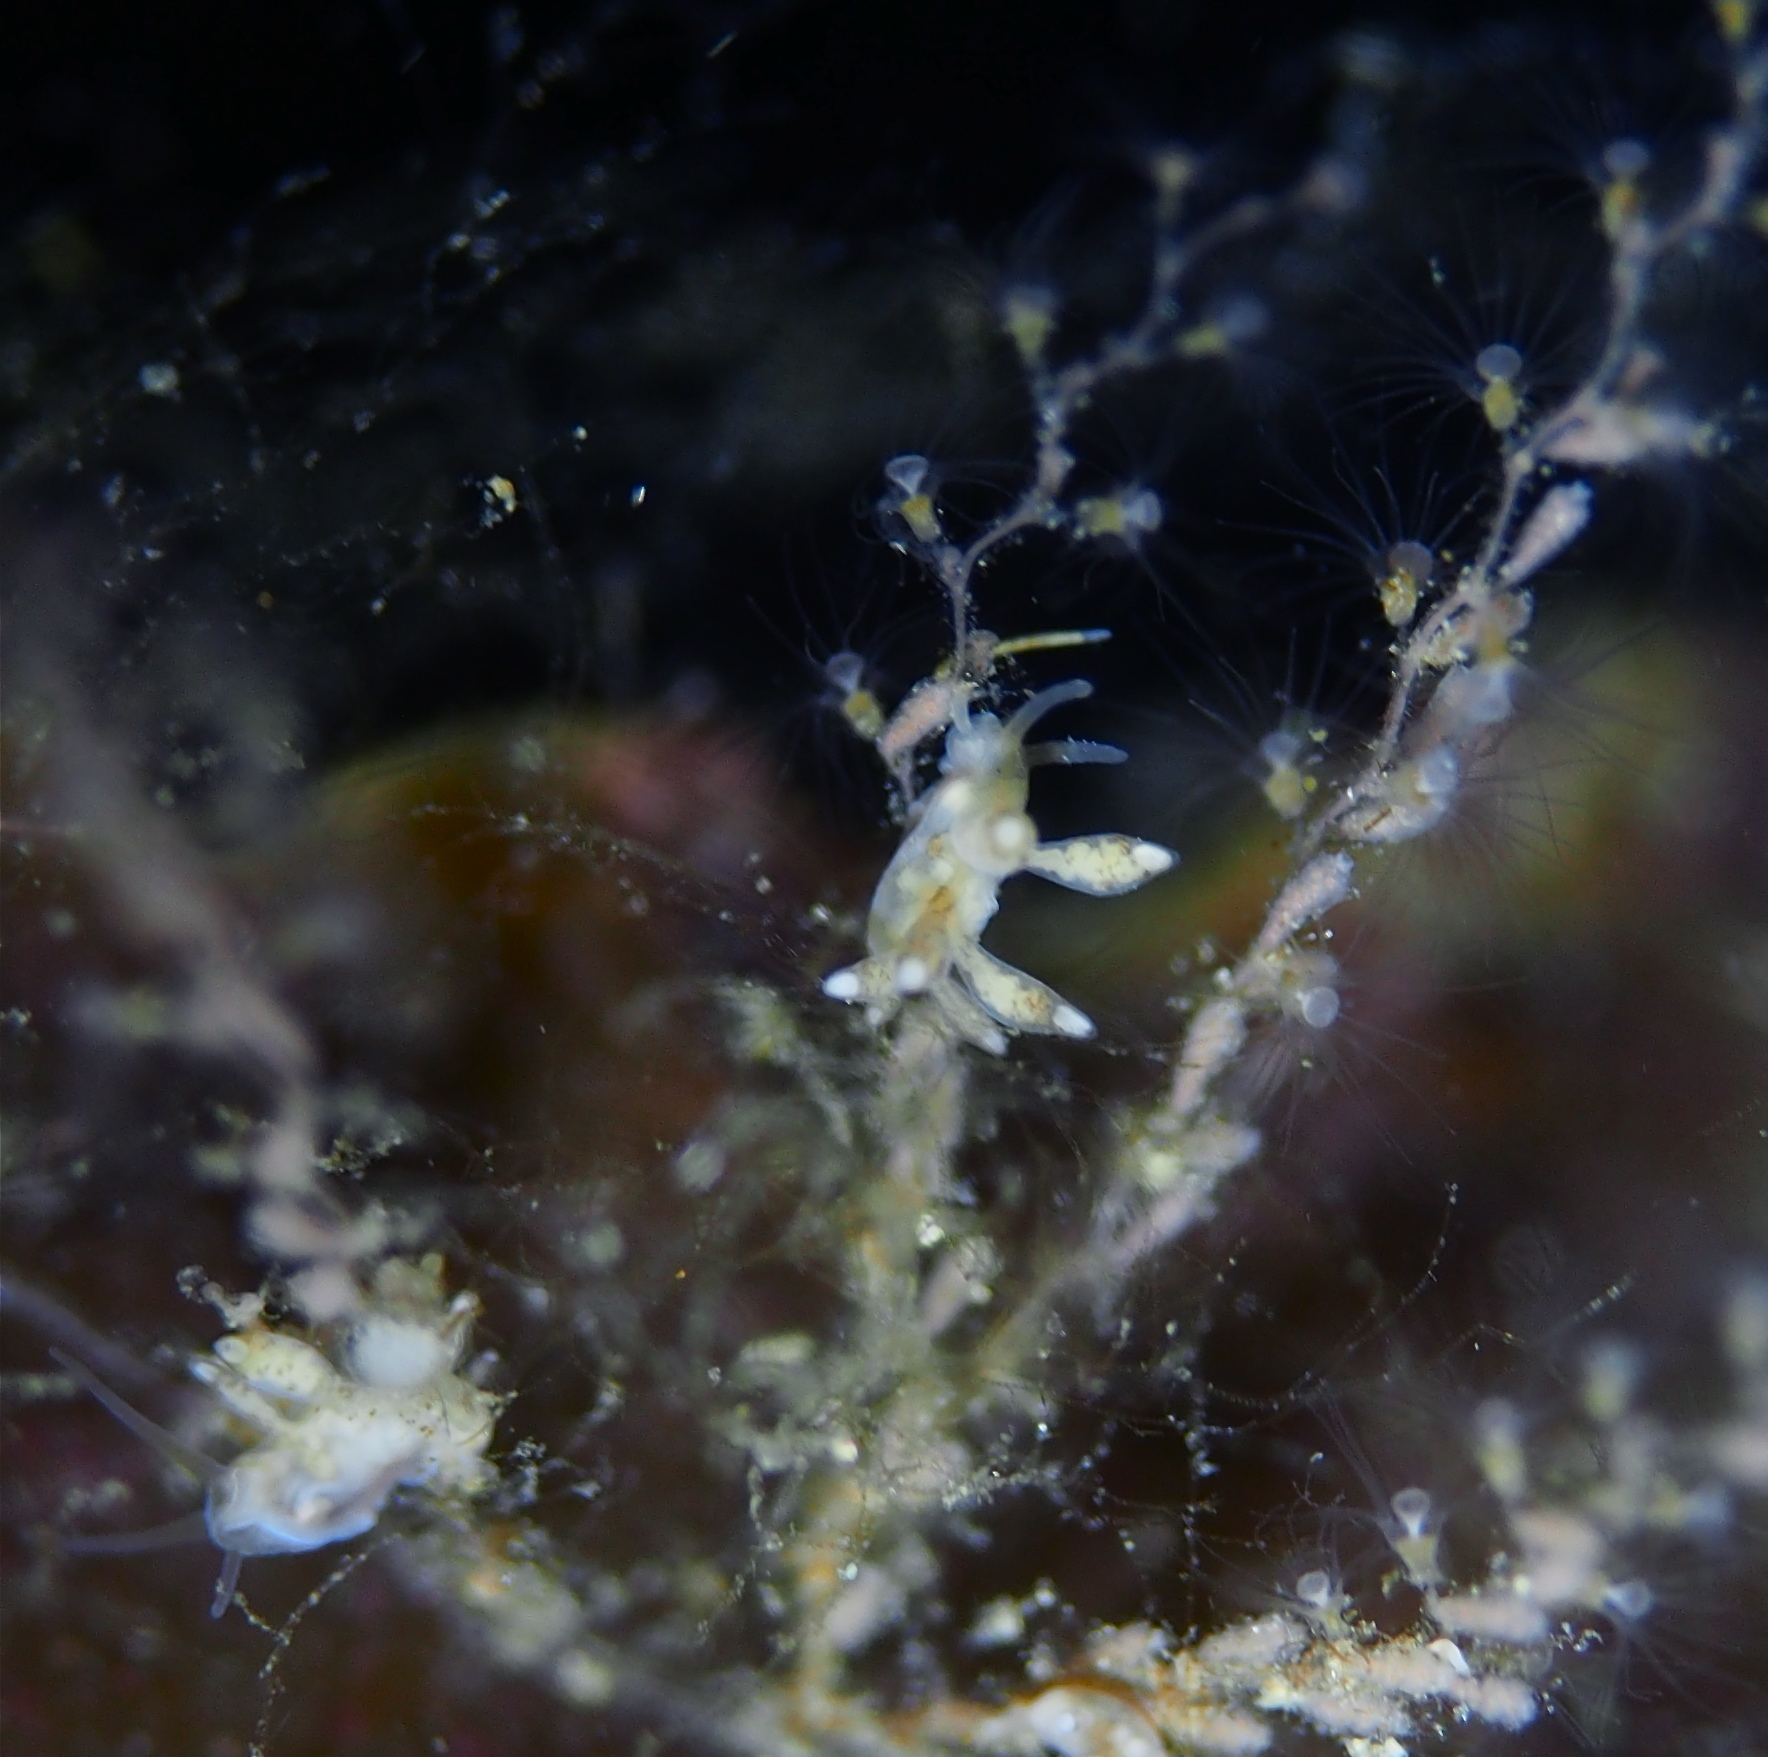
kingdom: Animalia
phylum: Mollusca
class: Gastropoda
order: Nudibranchia
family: Tergipedidae
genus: Tergipes
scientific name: Tergipes tergipes
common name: Johnston's balloon eolis
